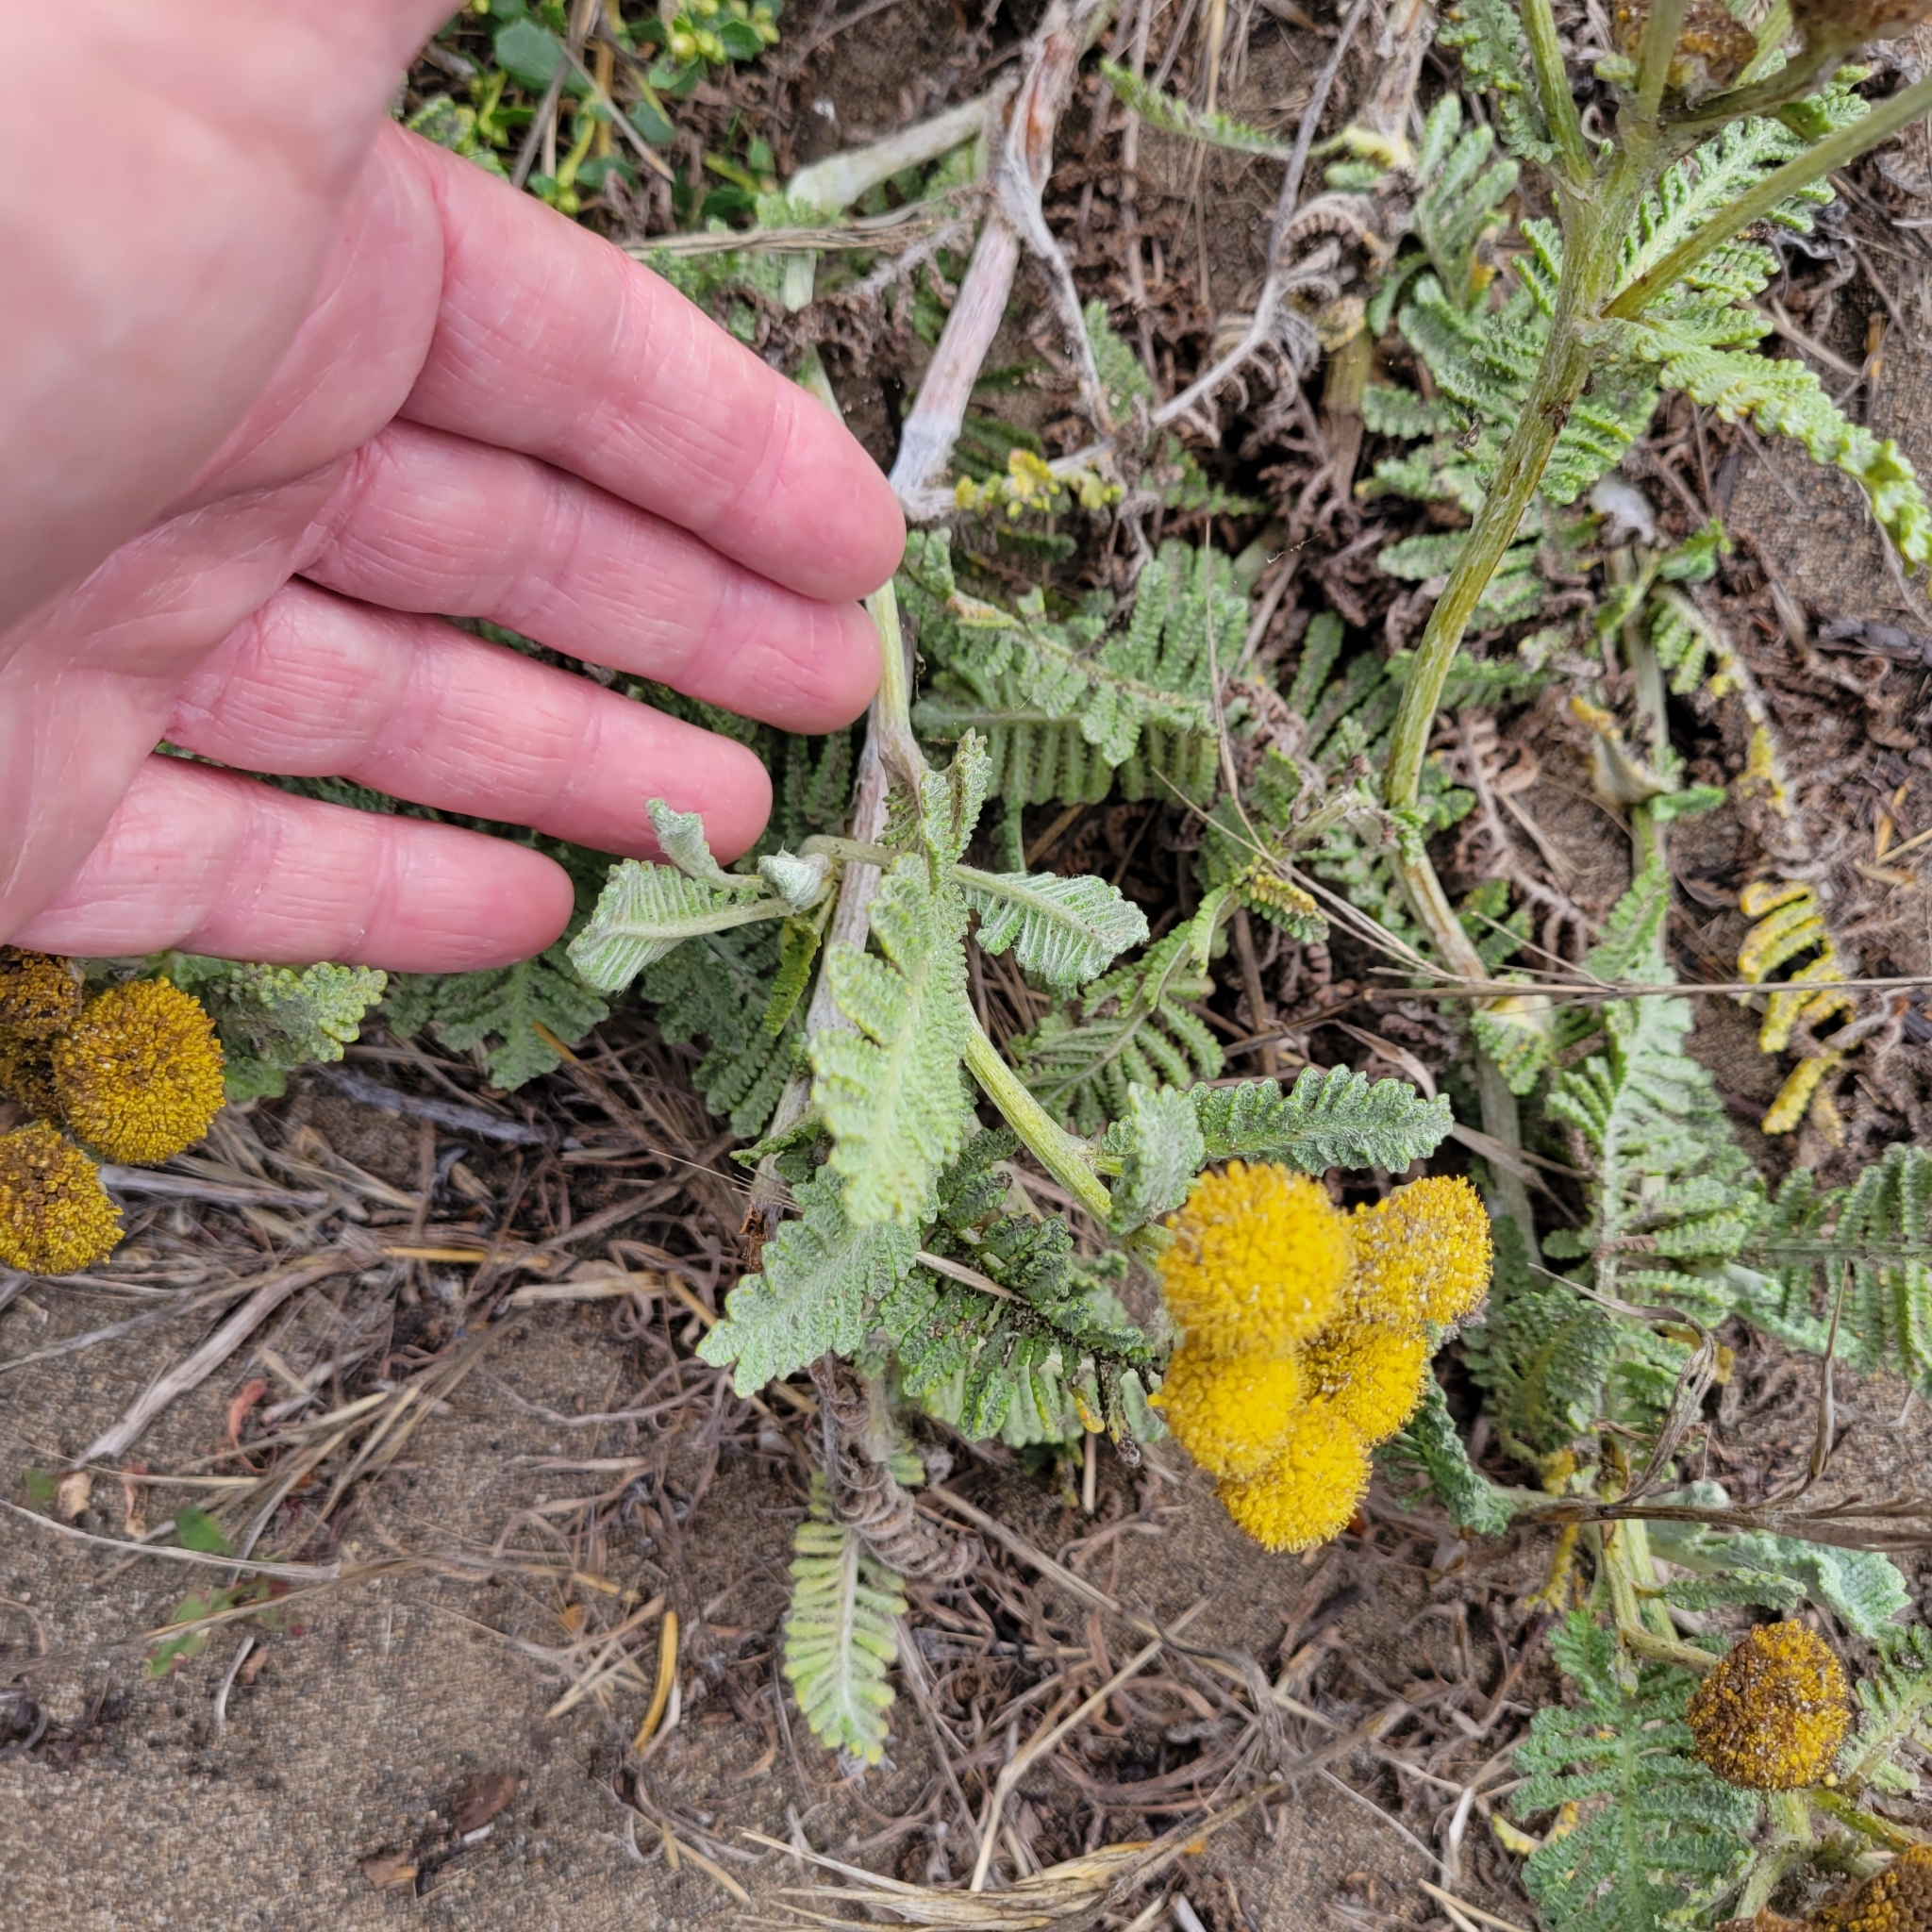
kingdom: Plantae
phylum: Tracheophyta
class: Magnoliopsida
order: Asterales
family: Asteraceae
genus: Tanacetum
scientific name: Tanacetum bipinnatum
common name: Dwarf tansy
